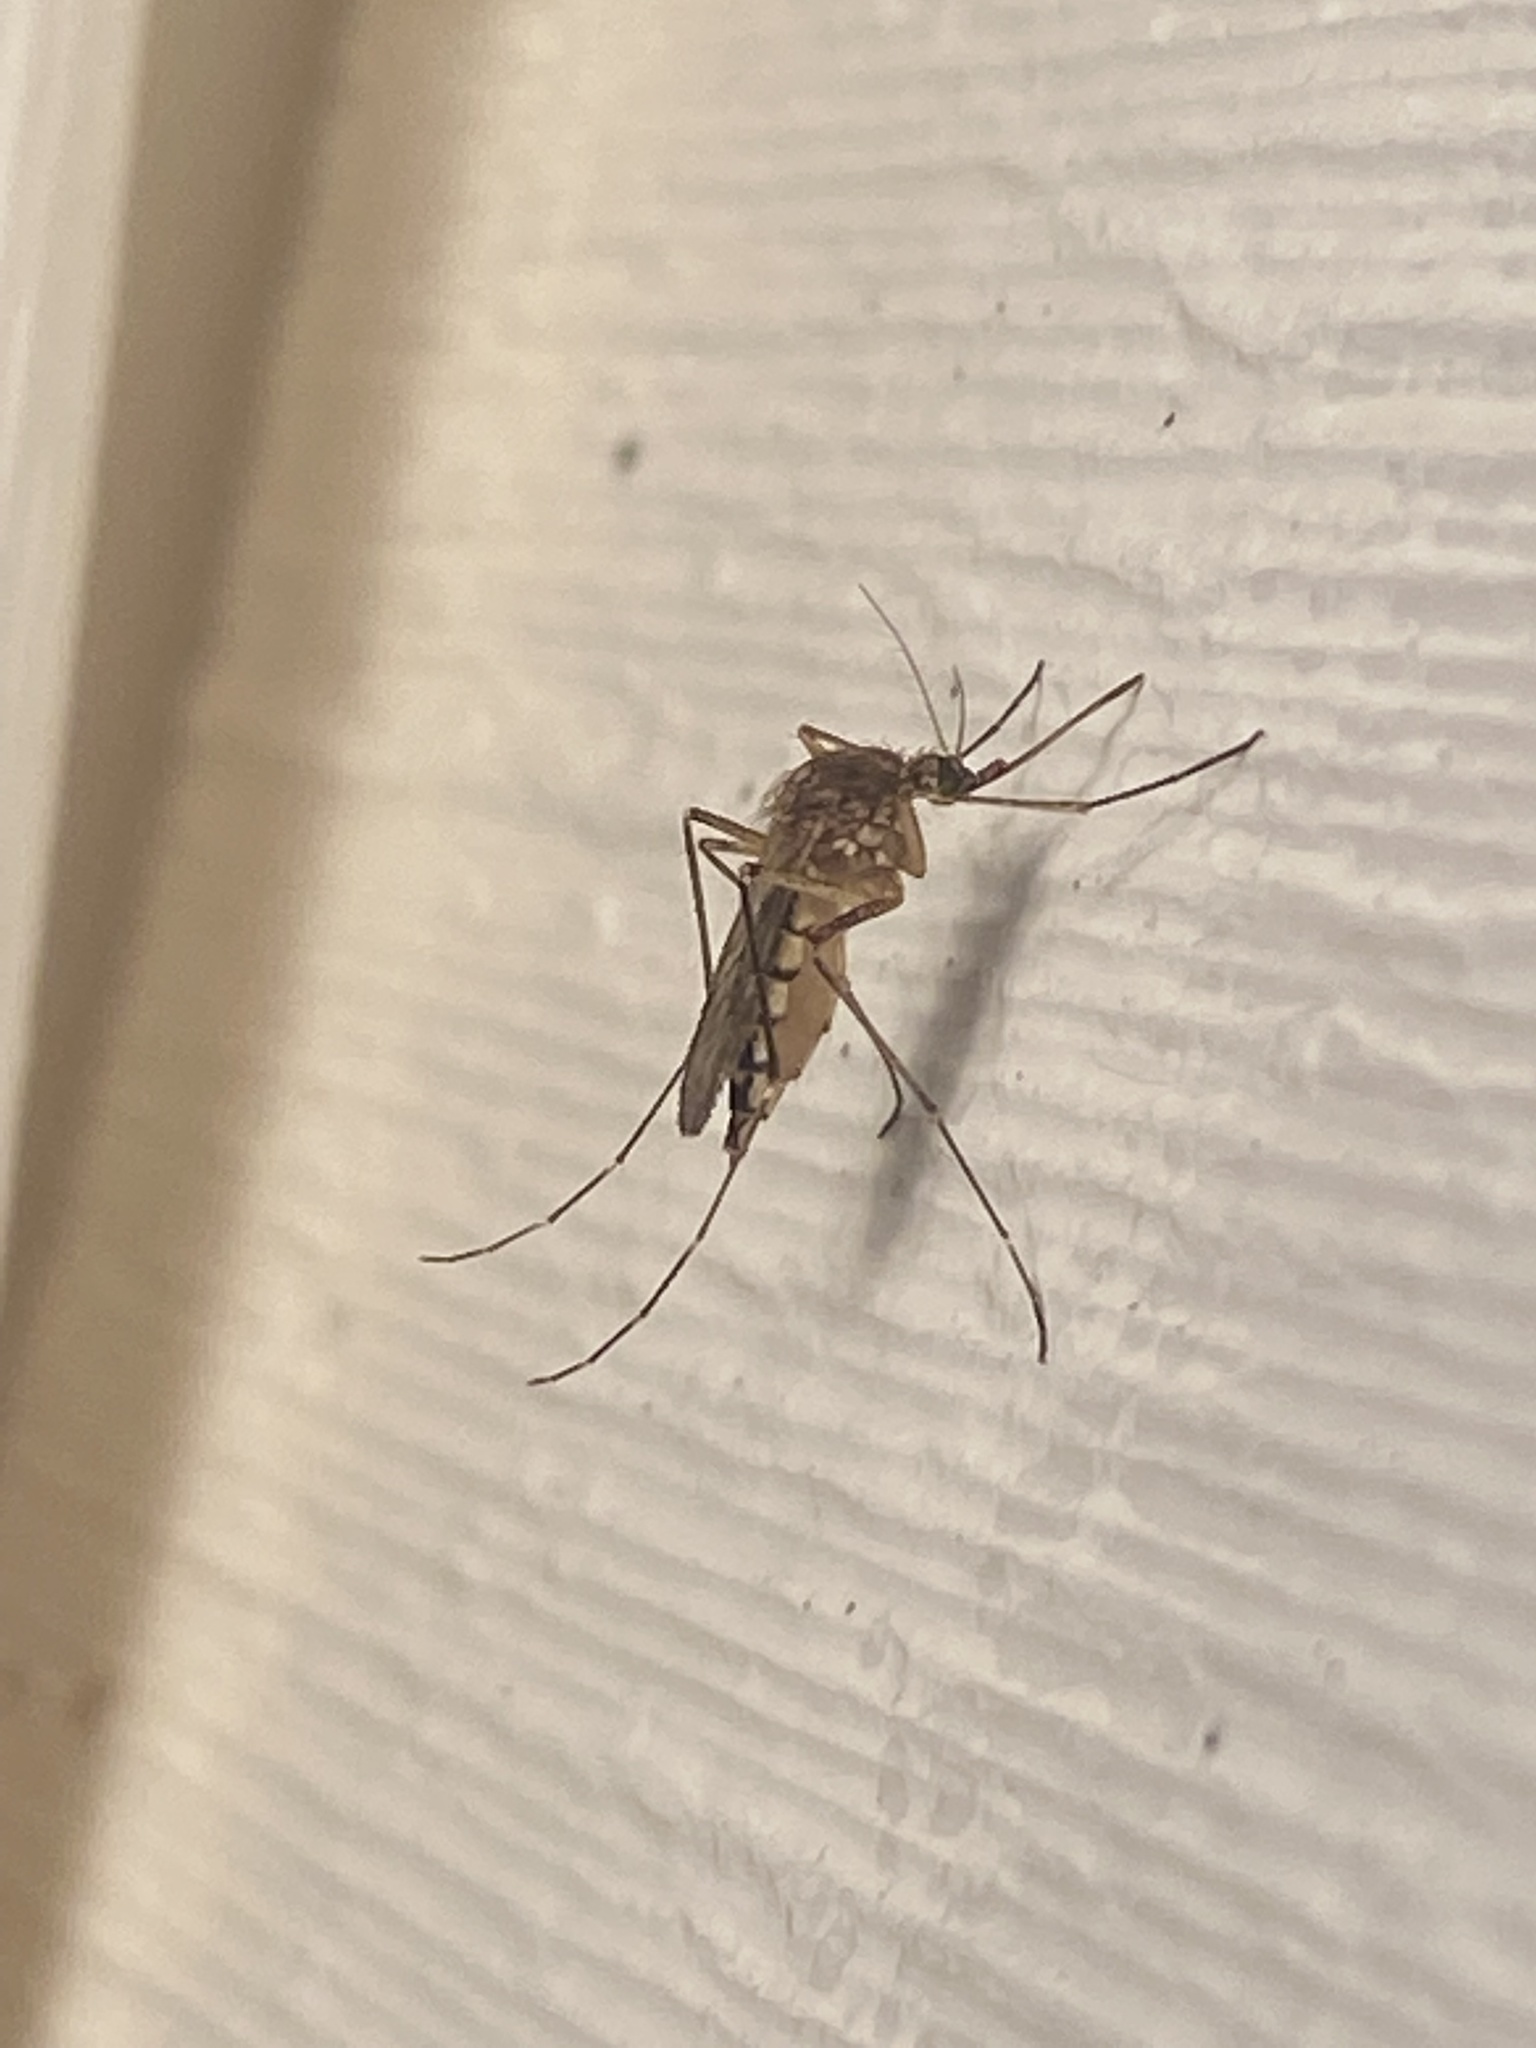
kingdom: Animalia
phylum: Arthropoda
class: Insecta
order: Diptera
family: Culicidae
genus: Aedes
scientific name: Aedes vexans
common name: Inland floodwater mosquito
